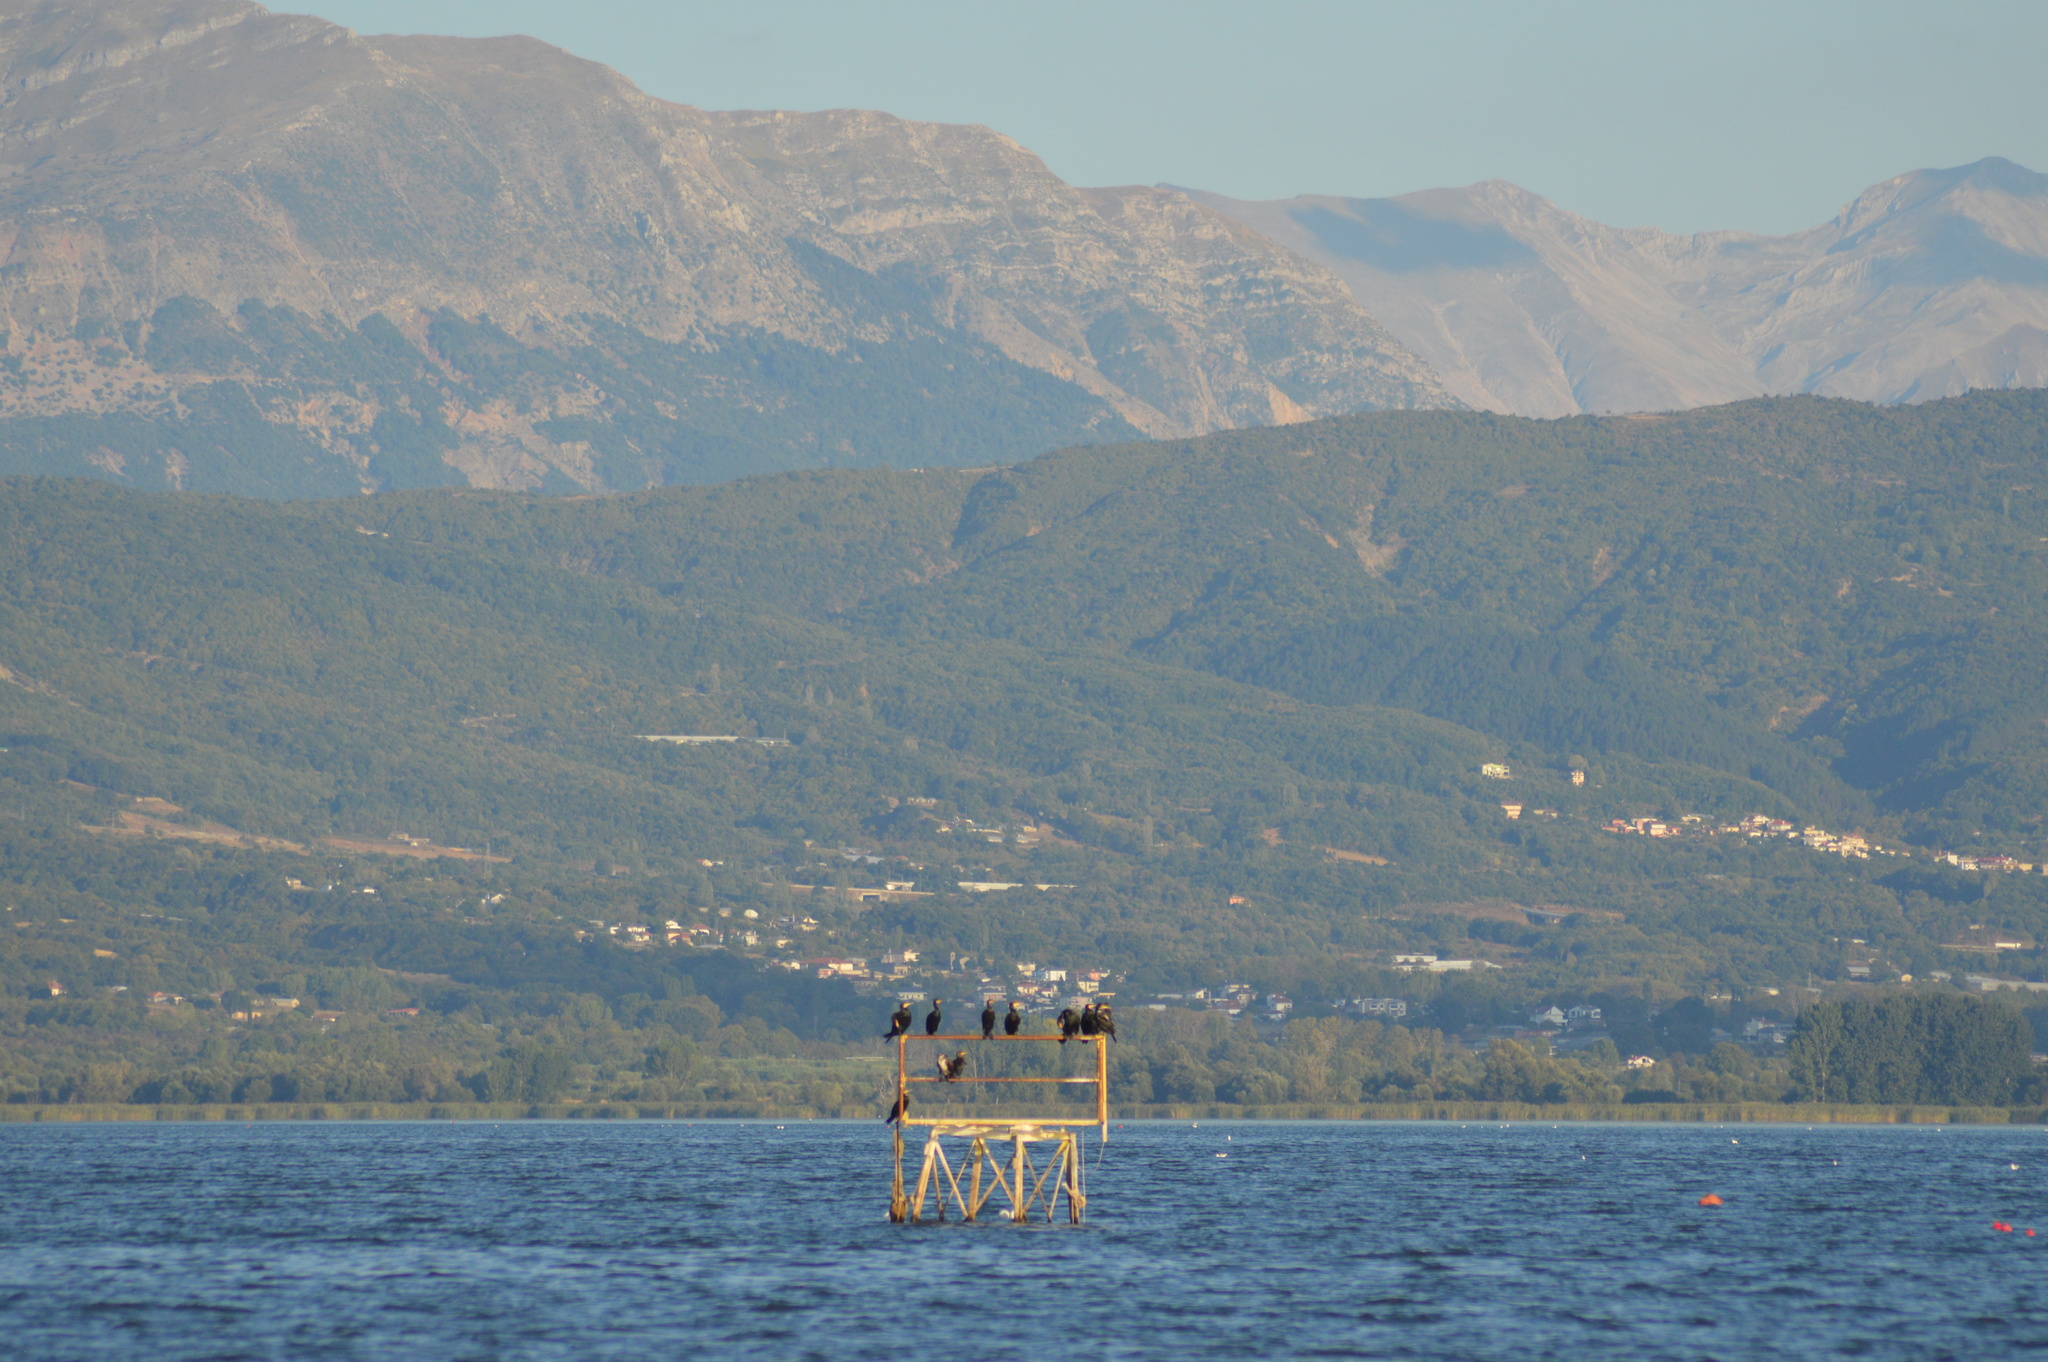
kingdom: Animalia
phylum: Chordata
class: Aves
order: Suliformes
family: Phalacrocoracidae
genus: Phalacrocorax
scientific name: Phalacrocorax carbo
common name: Great cormorant
